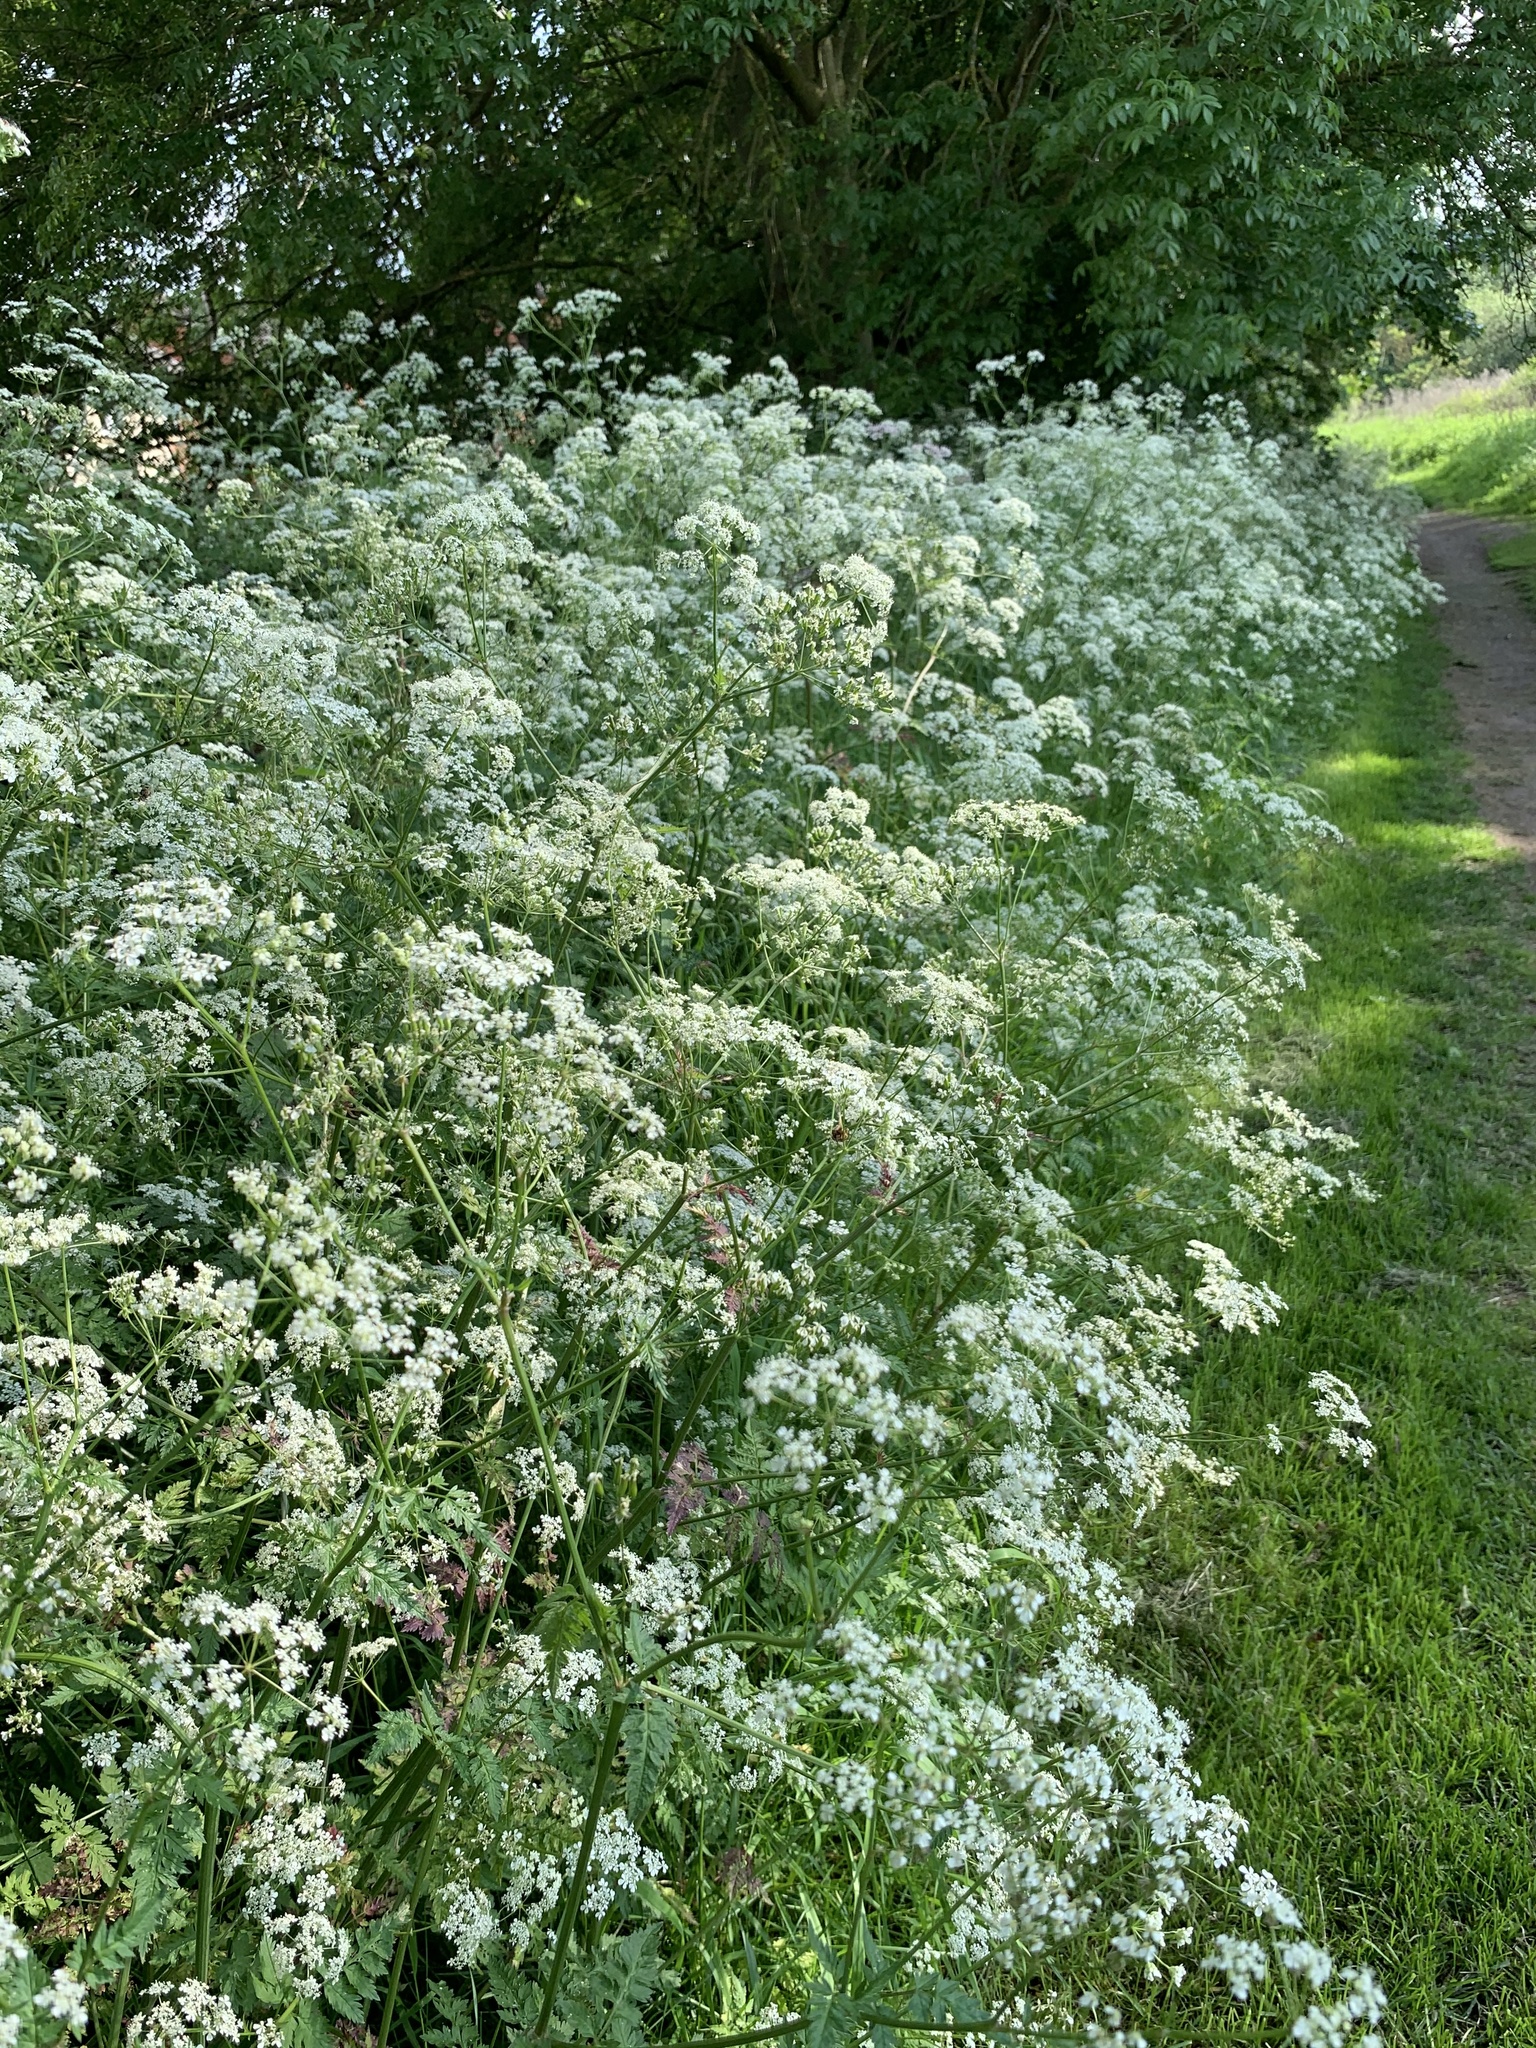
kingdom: Plantae
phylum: Tracheophyta
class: Magnoliopsida
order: Apiales
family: Apiaceae
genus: Anthriscus
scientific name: Anthriscus sylvestris
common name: Cow parsley
